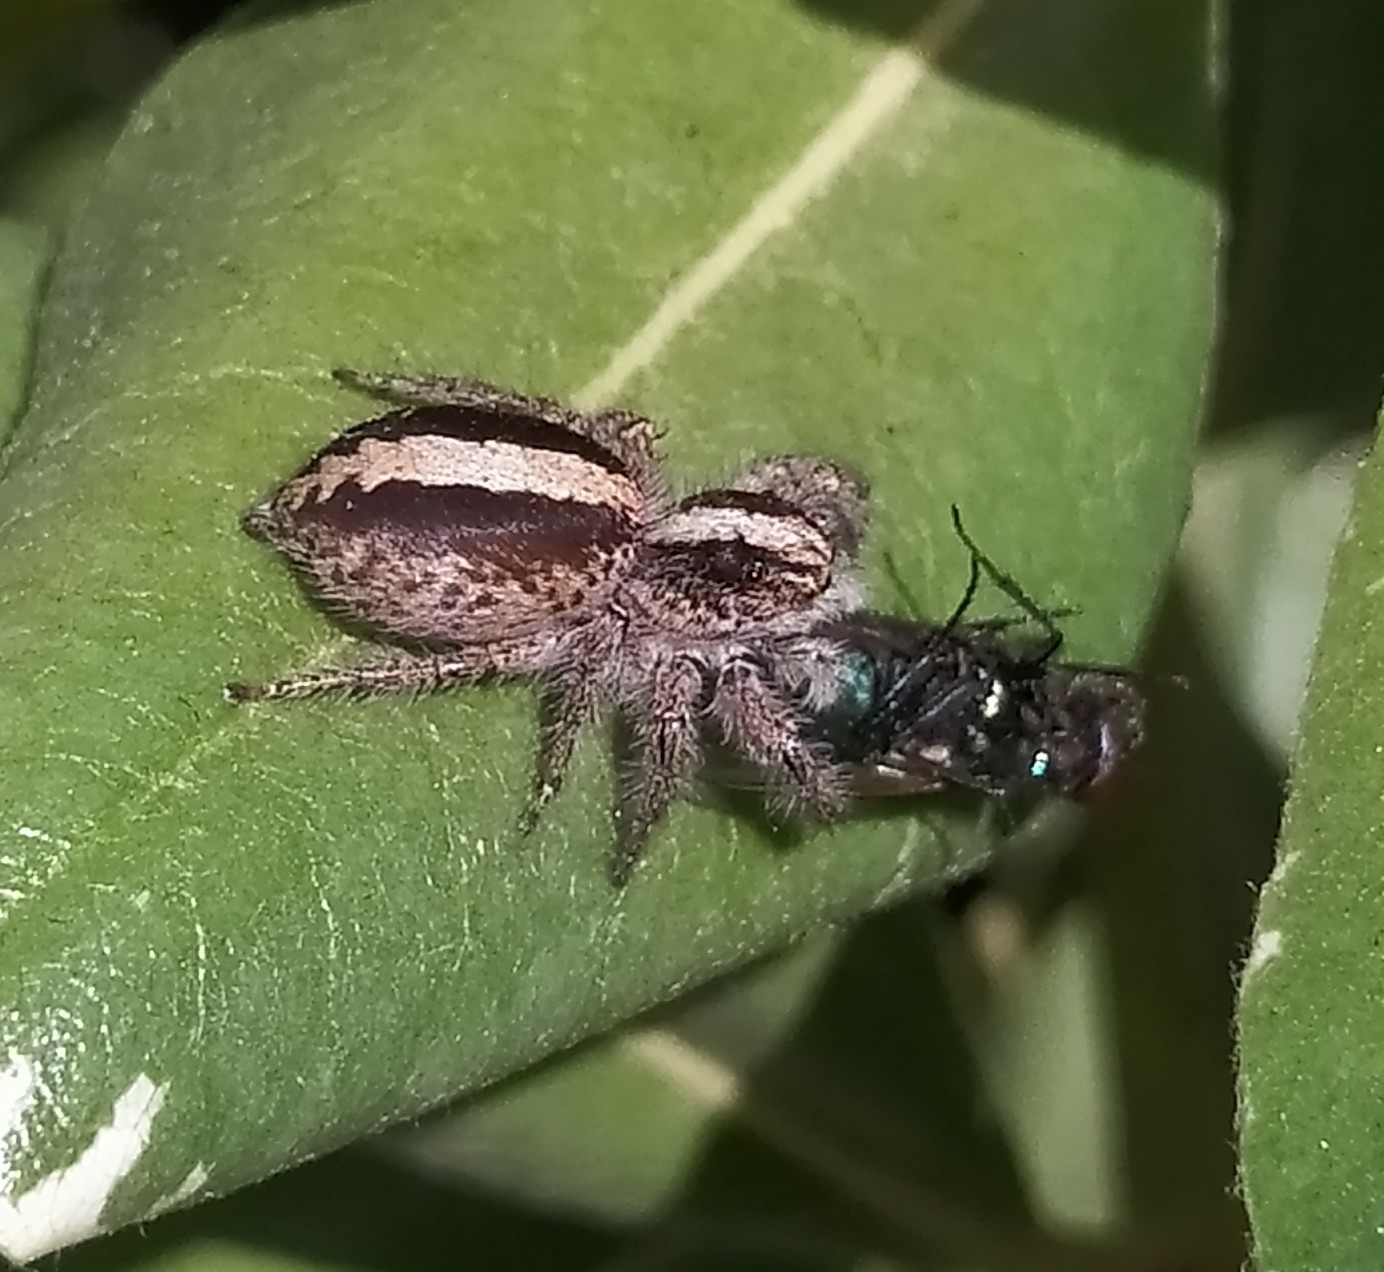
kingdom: Animalia
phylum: Arthropoda
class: Arachnida
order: Araneae
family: Salticidae
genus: Megafreya
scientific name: Megafreya sutrix
